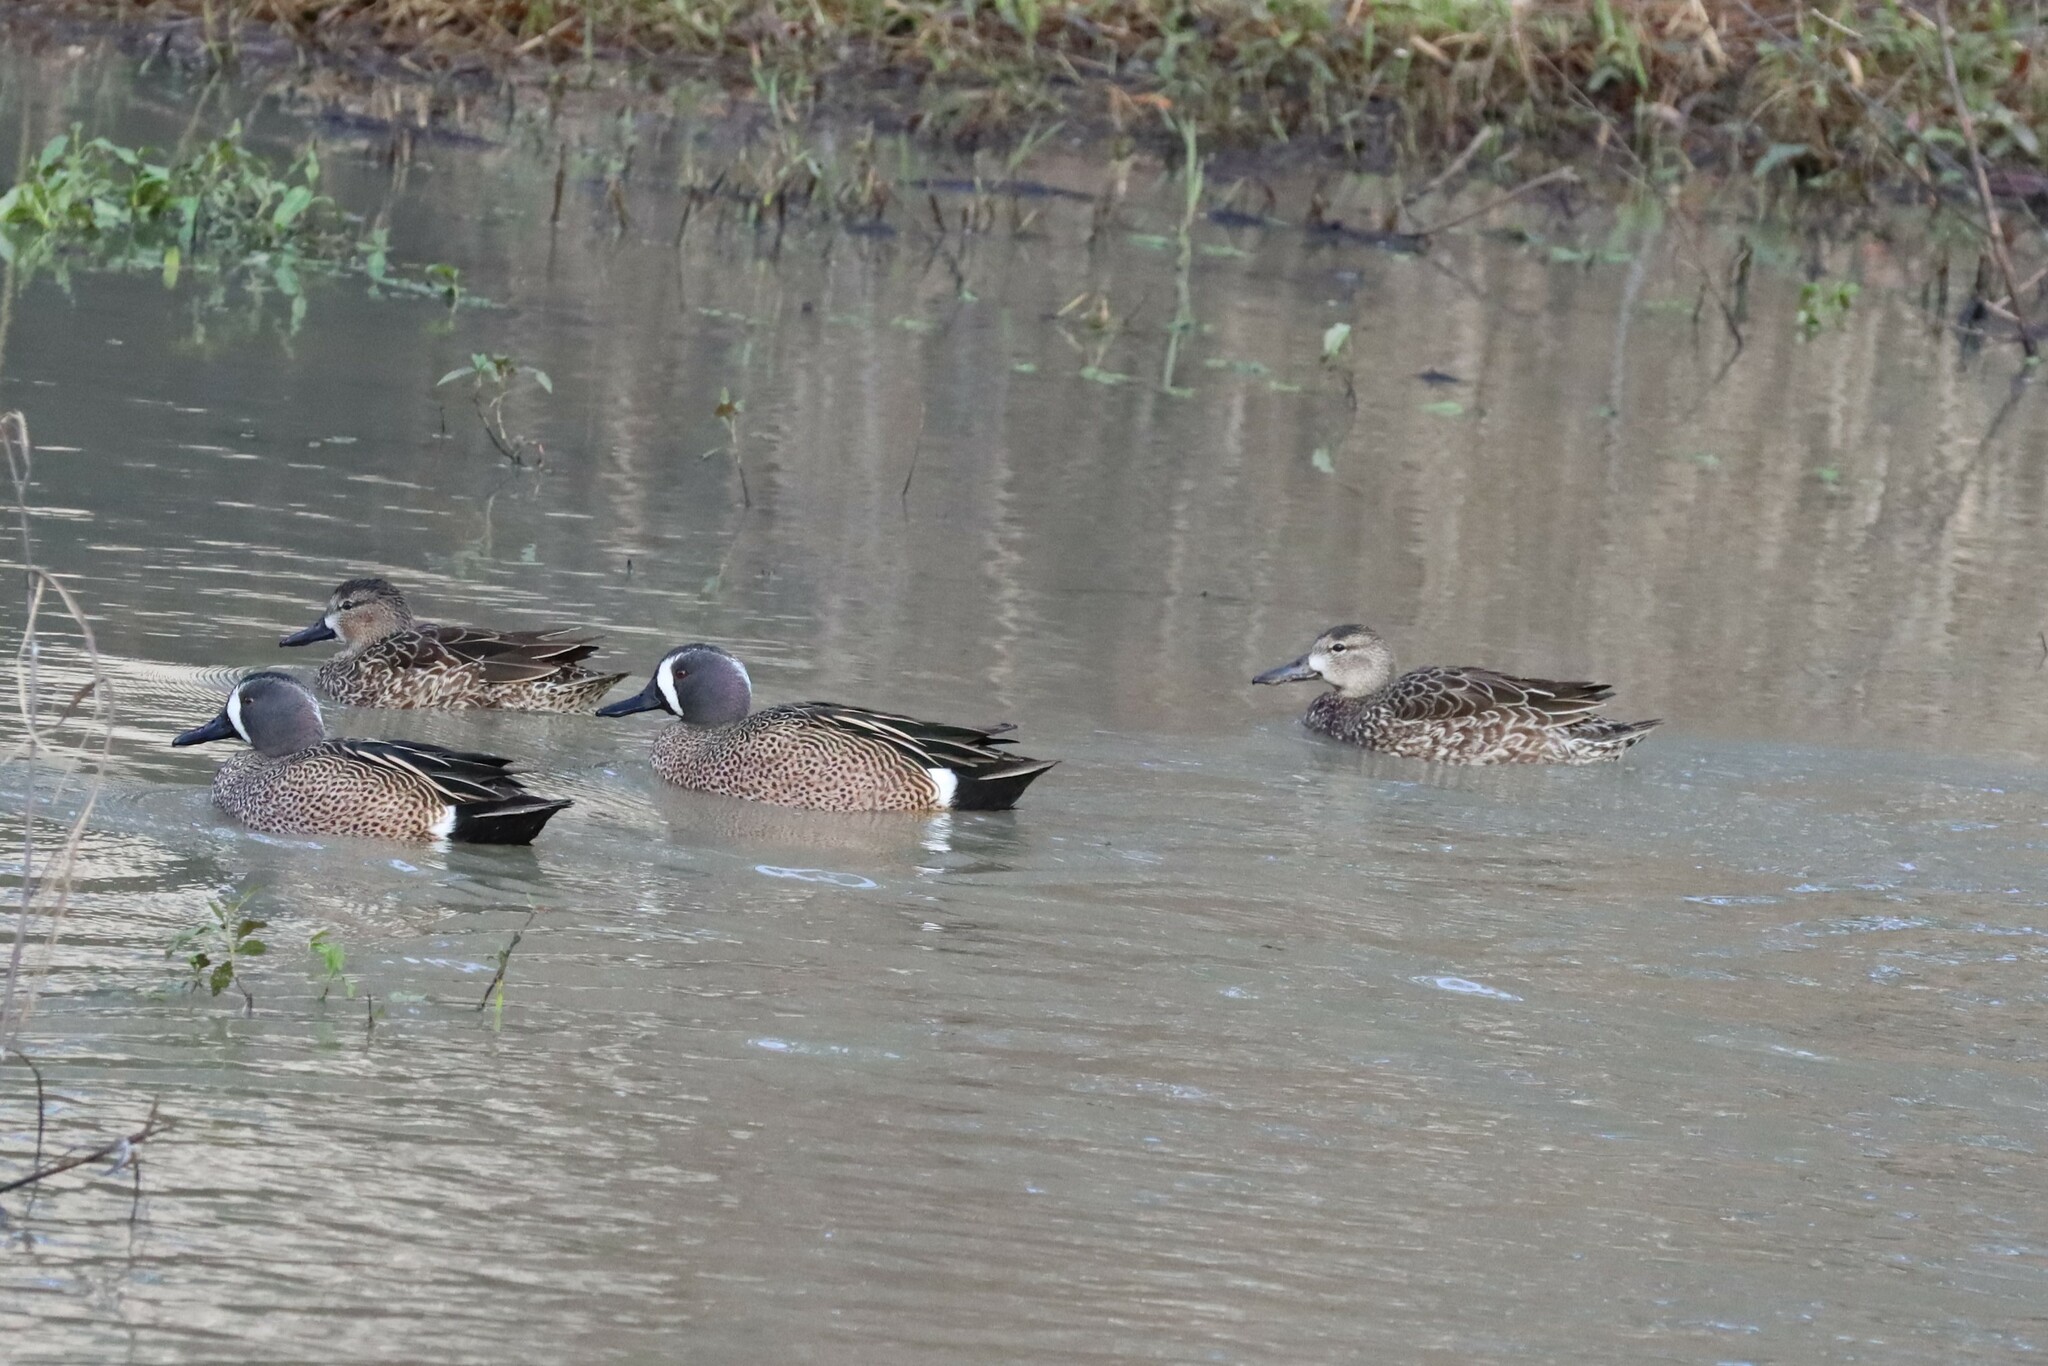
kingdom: Animalia
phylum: Chordata
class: Aves
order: Anseriformes
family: Anatidae
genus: Spatula
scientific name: Spatula discors
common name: Blue-winged teal
